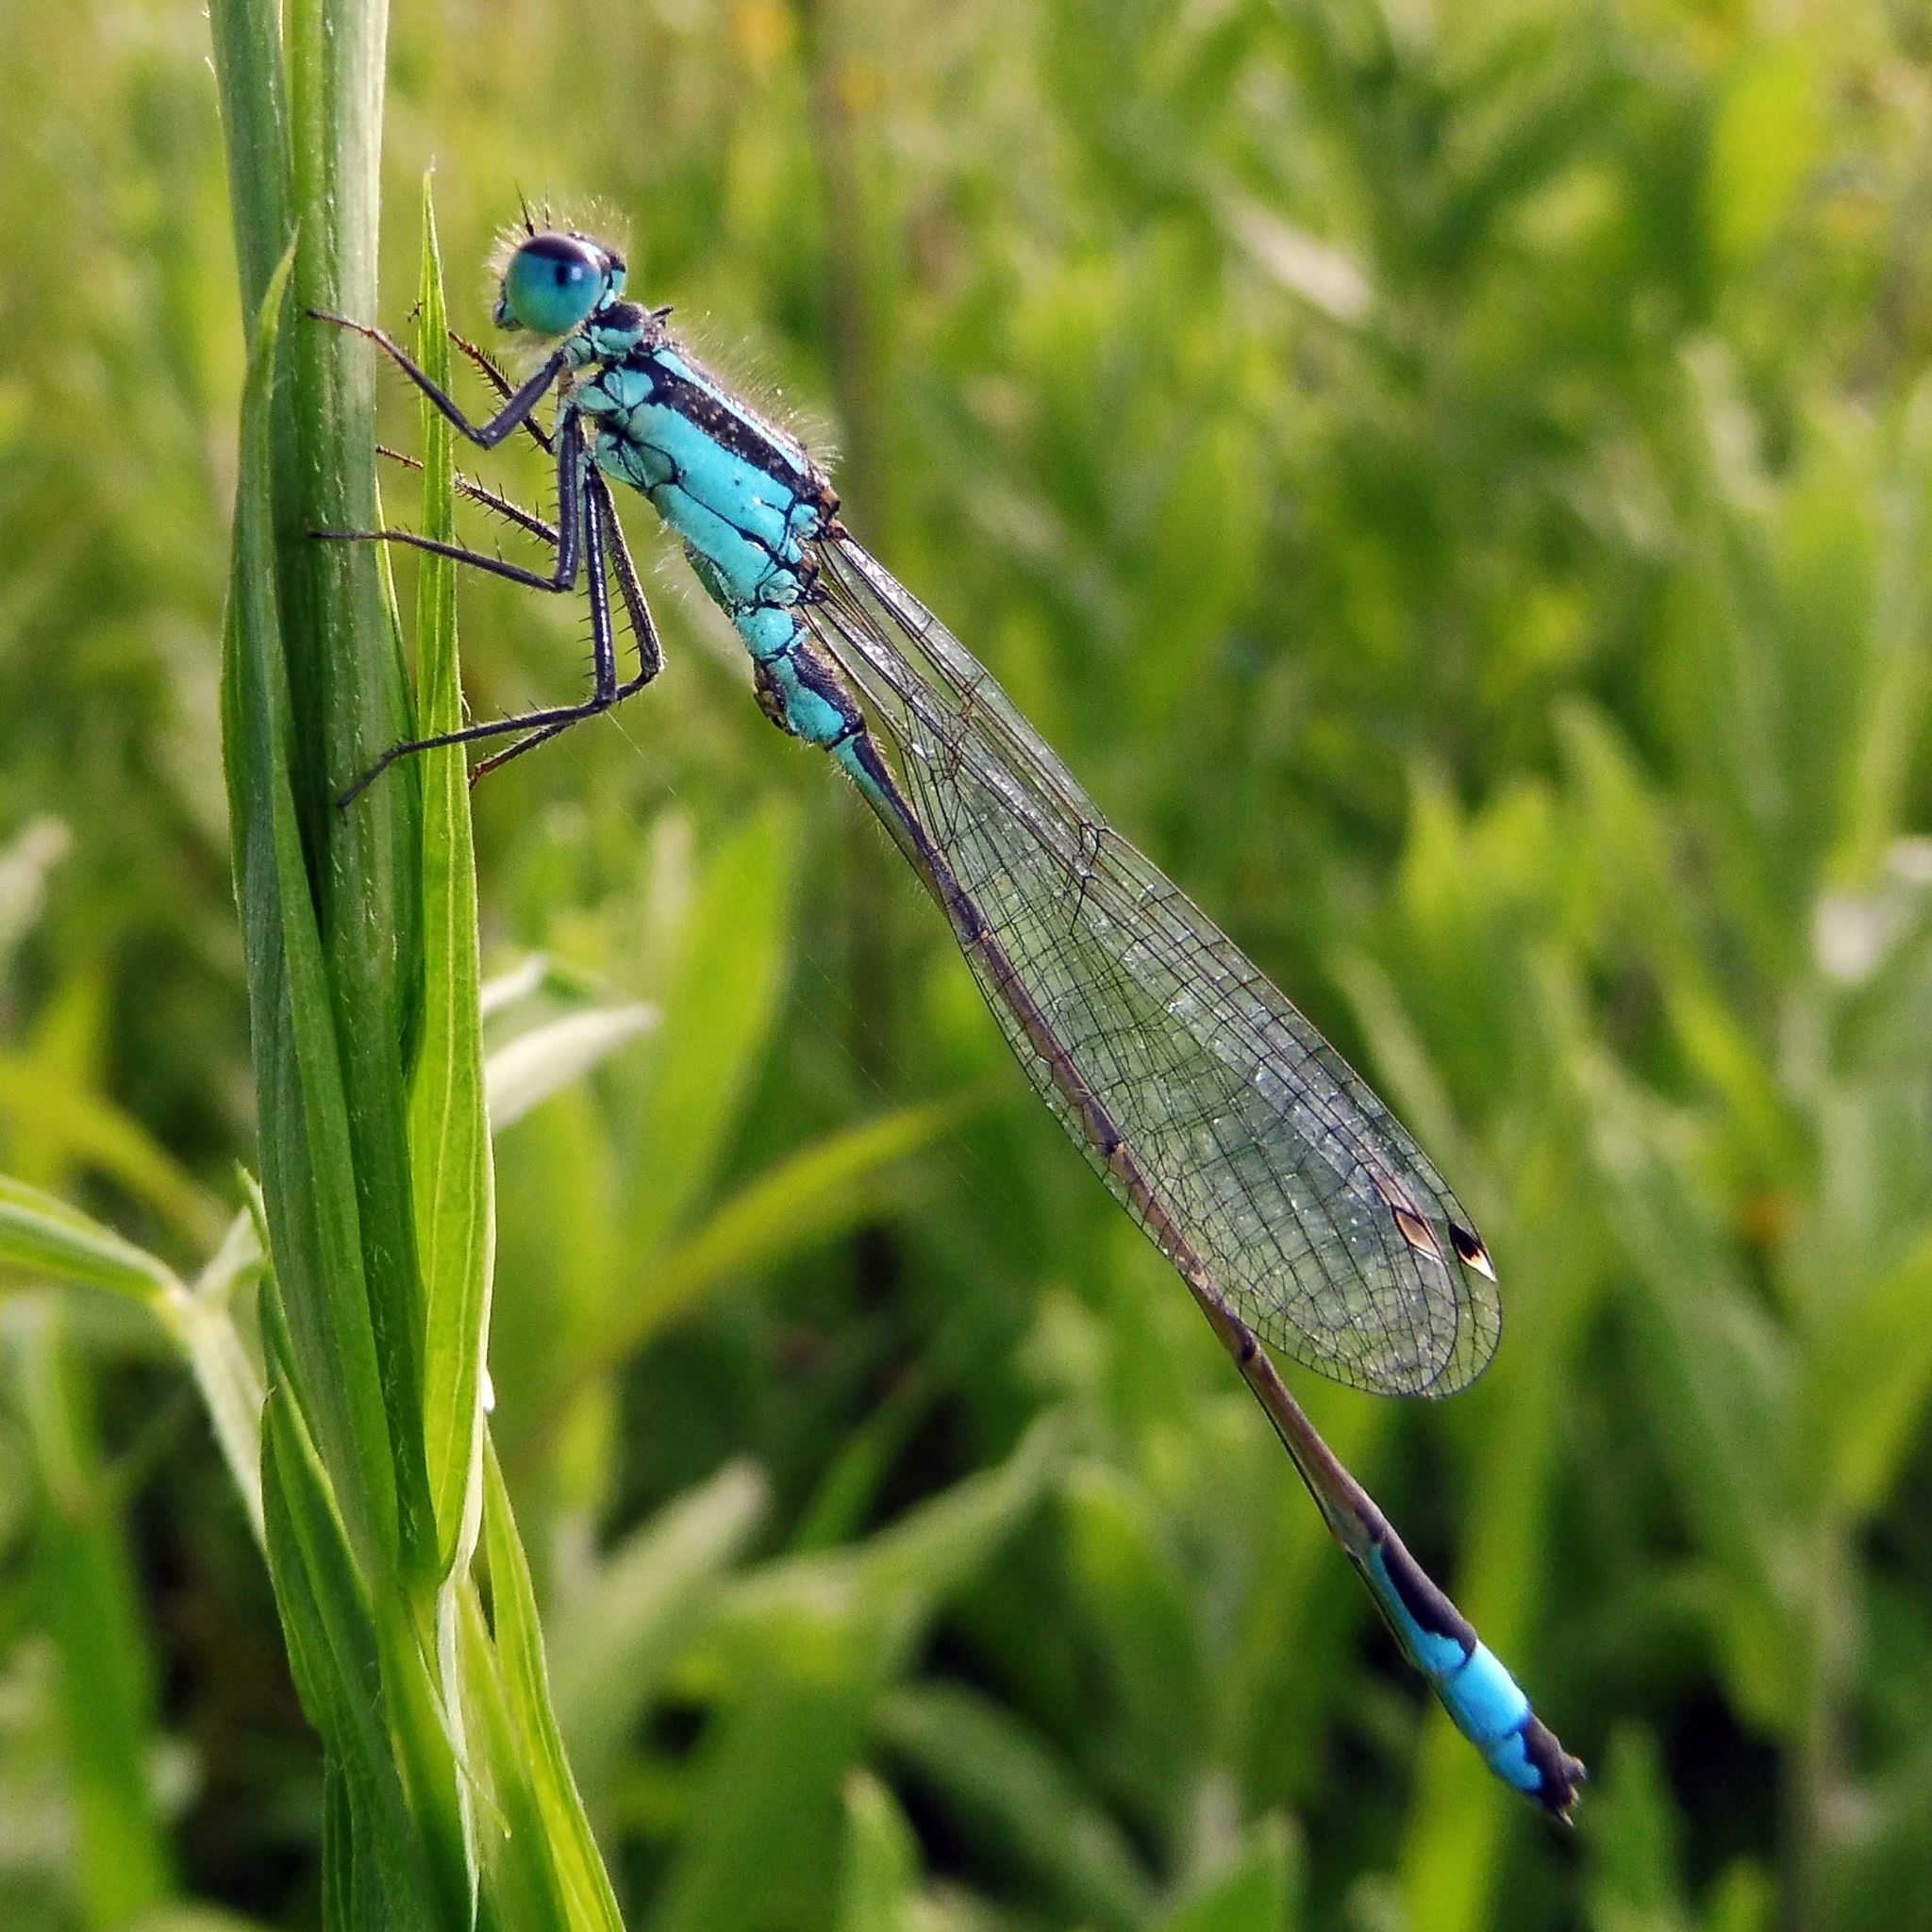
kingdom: Animalia
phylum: Arthropoda
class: Insecta
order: Odonata
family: Coenagrionidae
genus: Ischnura
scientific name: Ischnura elegans
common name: Blue-tailed damselfly
